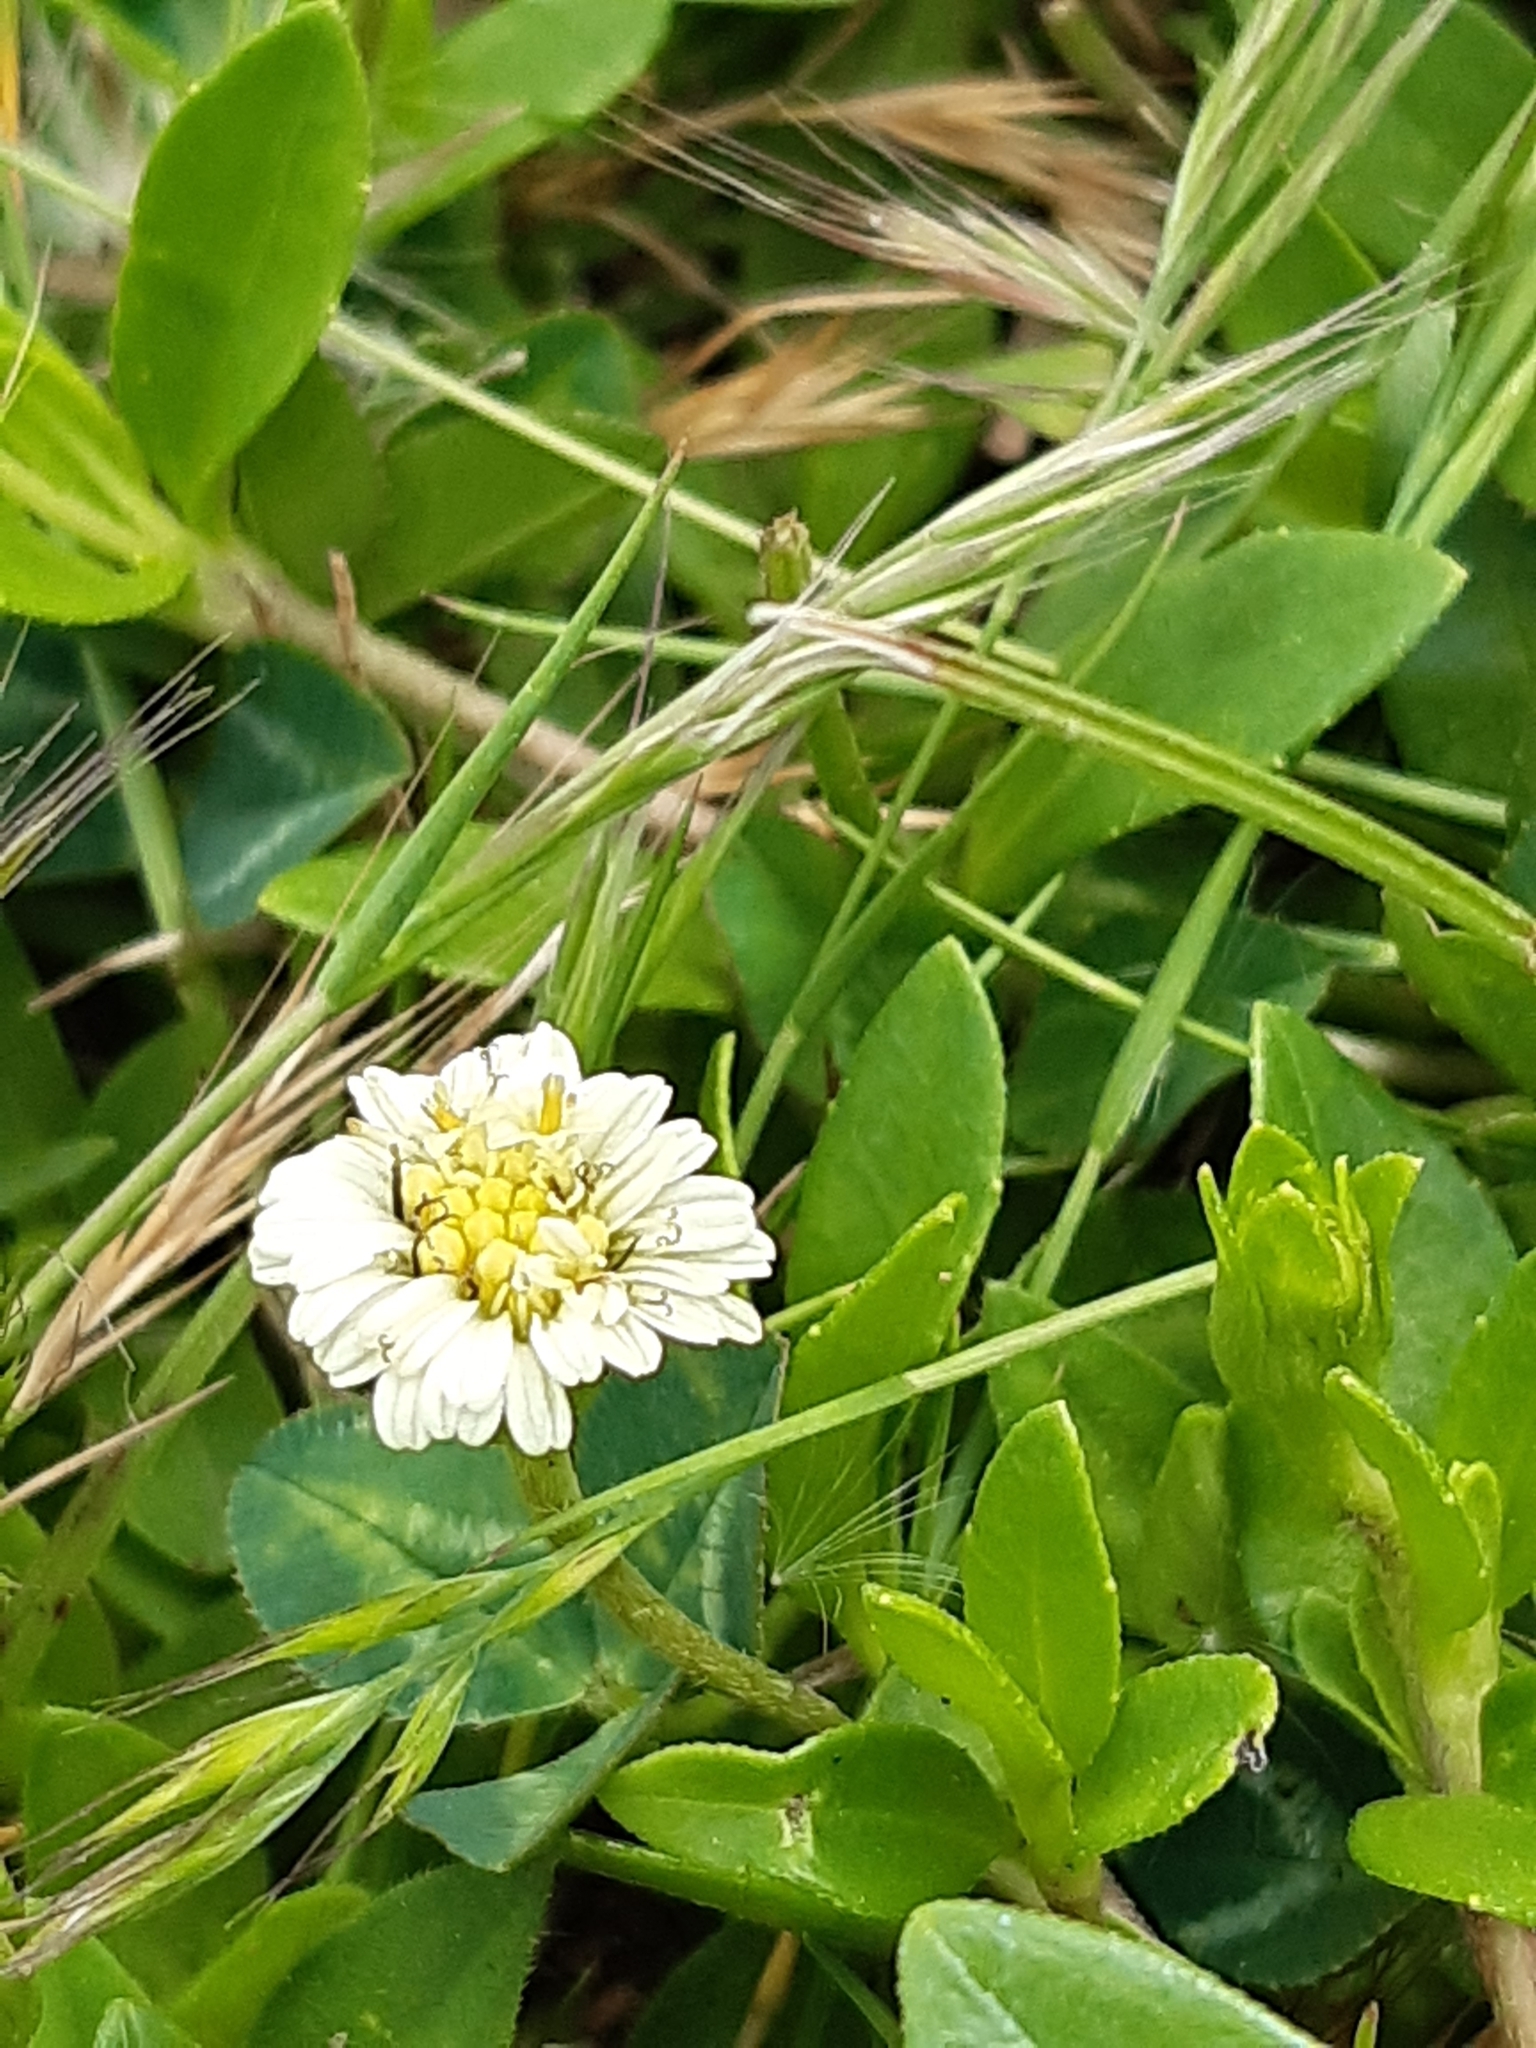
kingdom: Plantae
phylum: Tracheophyta
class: Magnoliopsida
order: Asterales
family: Asteraceae
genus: Eclipta
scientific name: Eclipta elliptica
